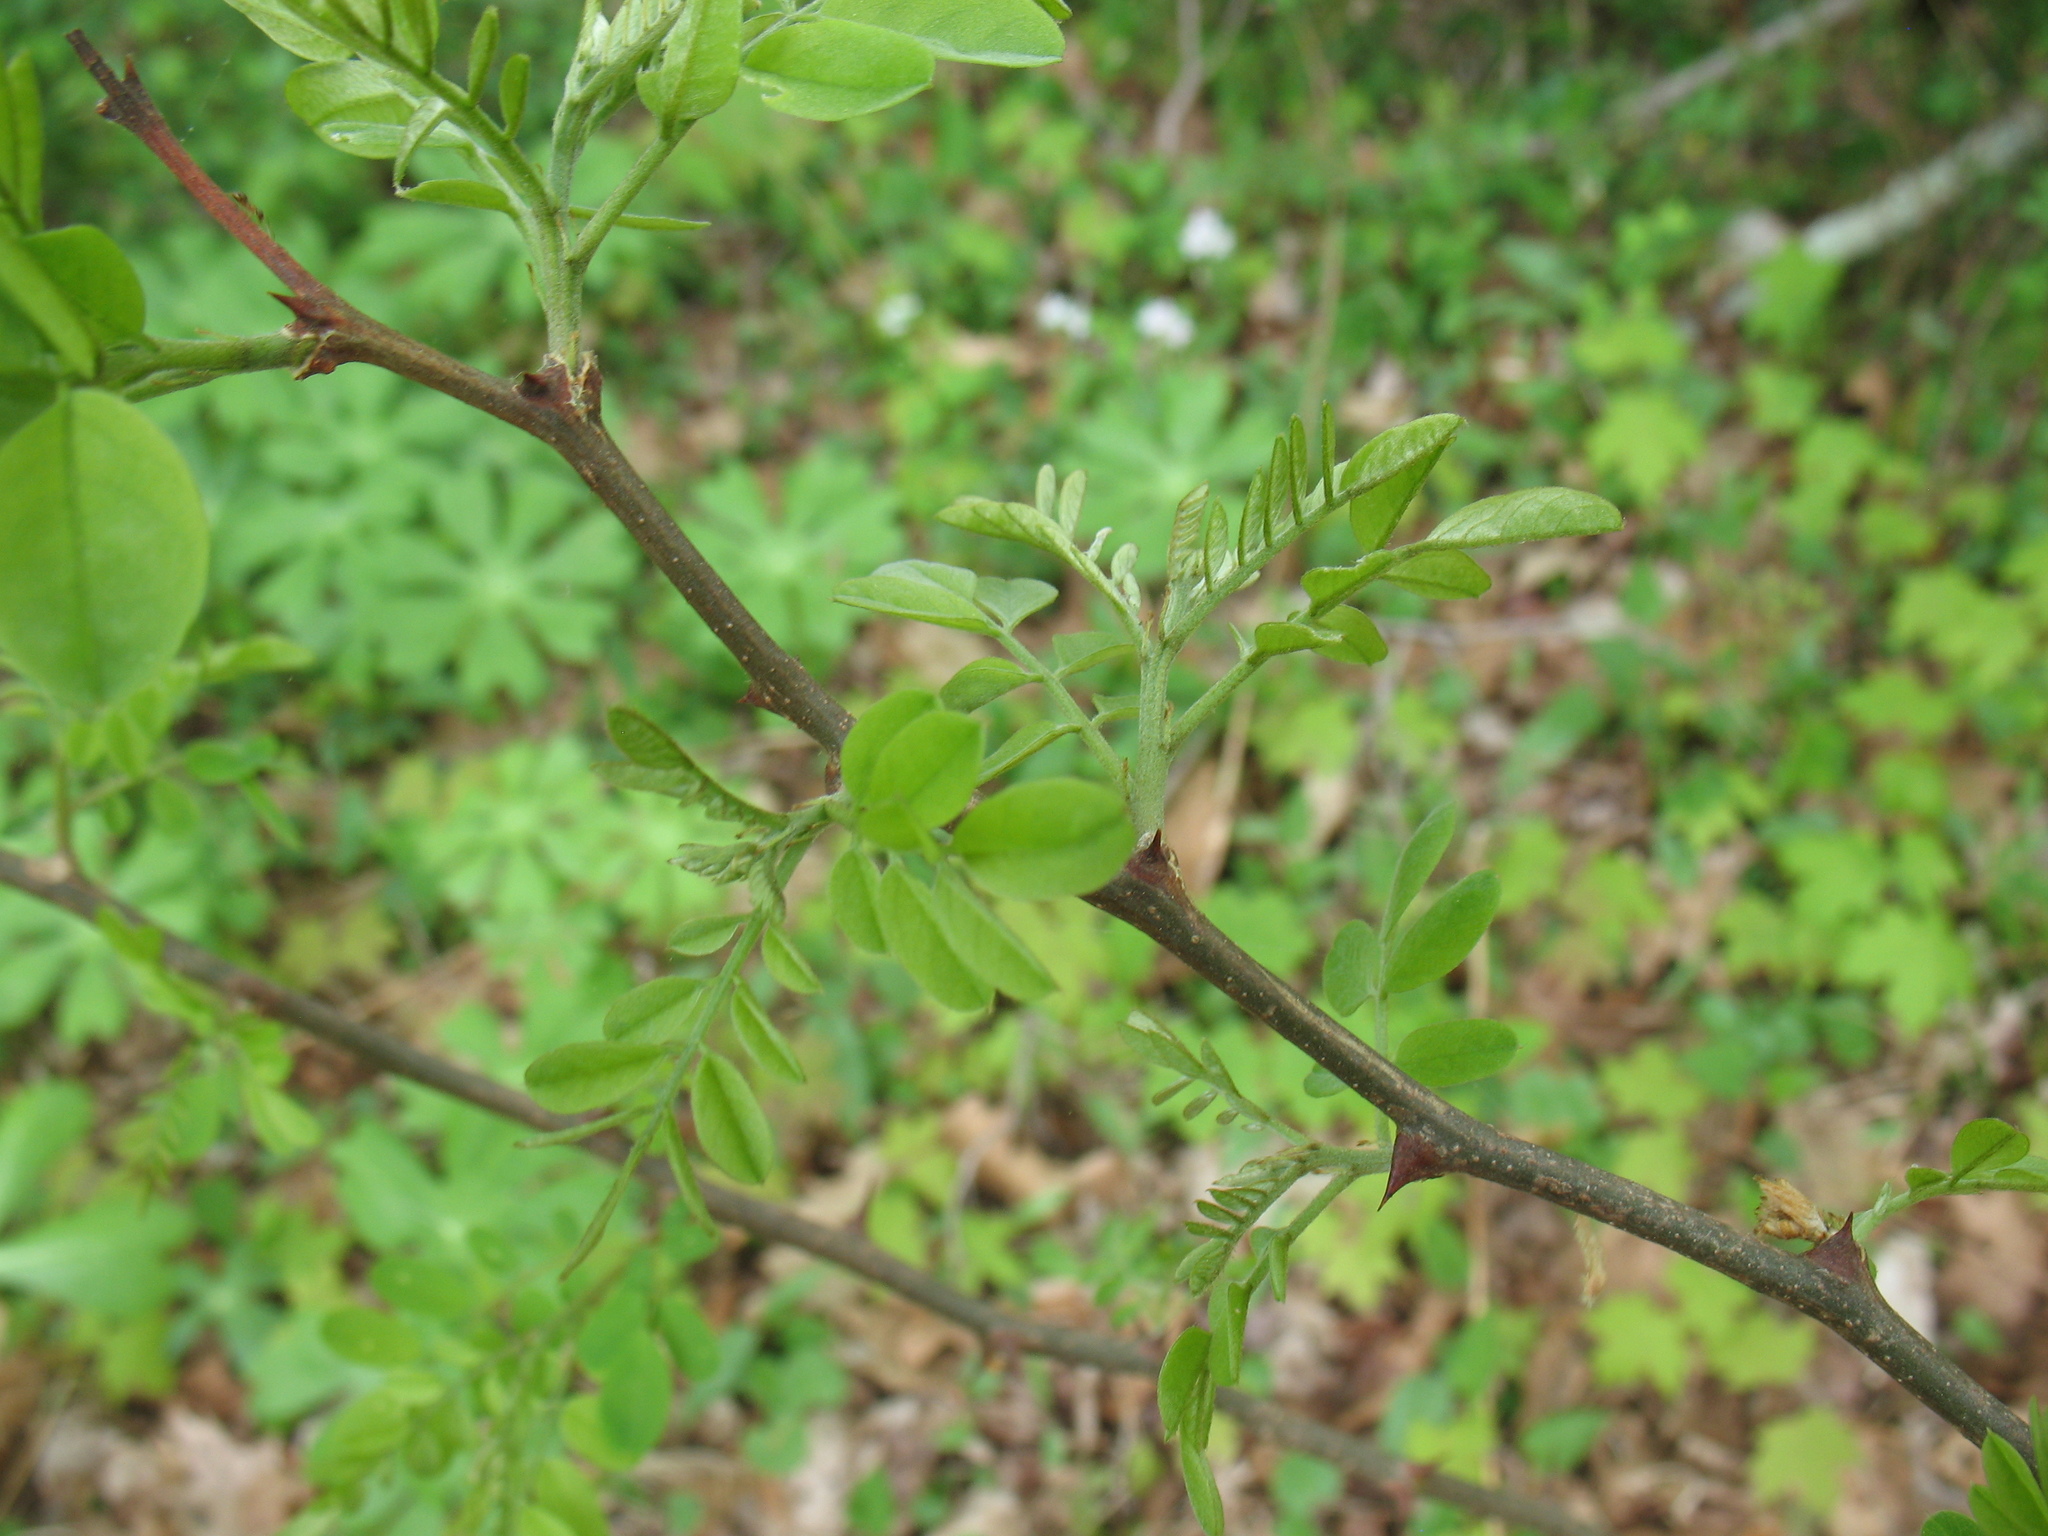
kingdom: Plantae
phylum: Tracheophyta
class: Magnoliopsida
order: Fabales
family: Fabaceae
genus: Gleditsia
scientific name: Gleditsia triacanthos
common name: Common honeylocust
